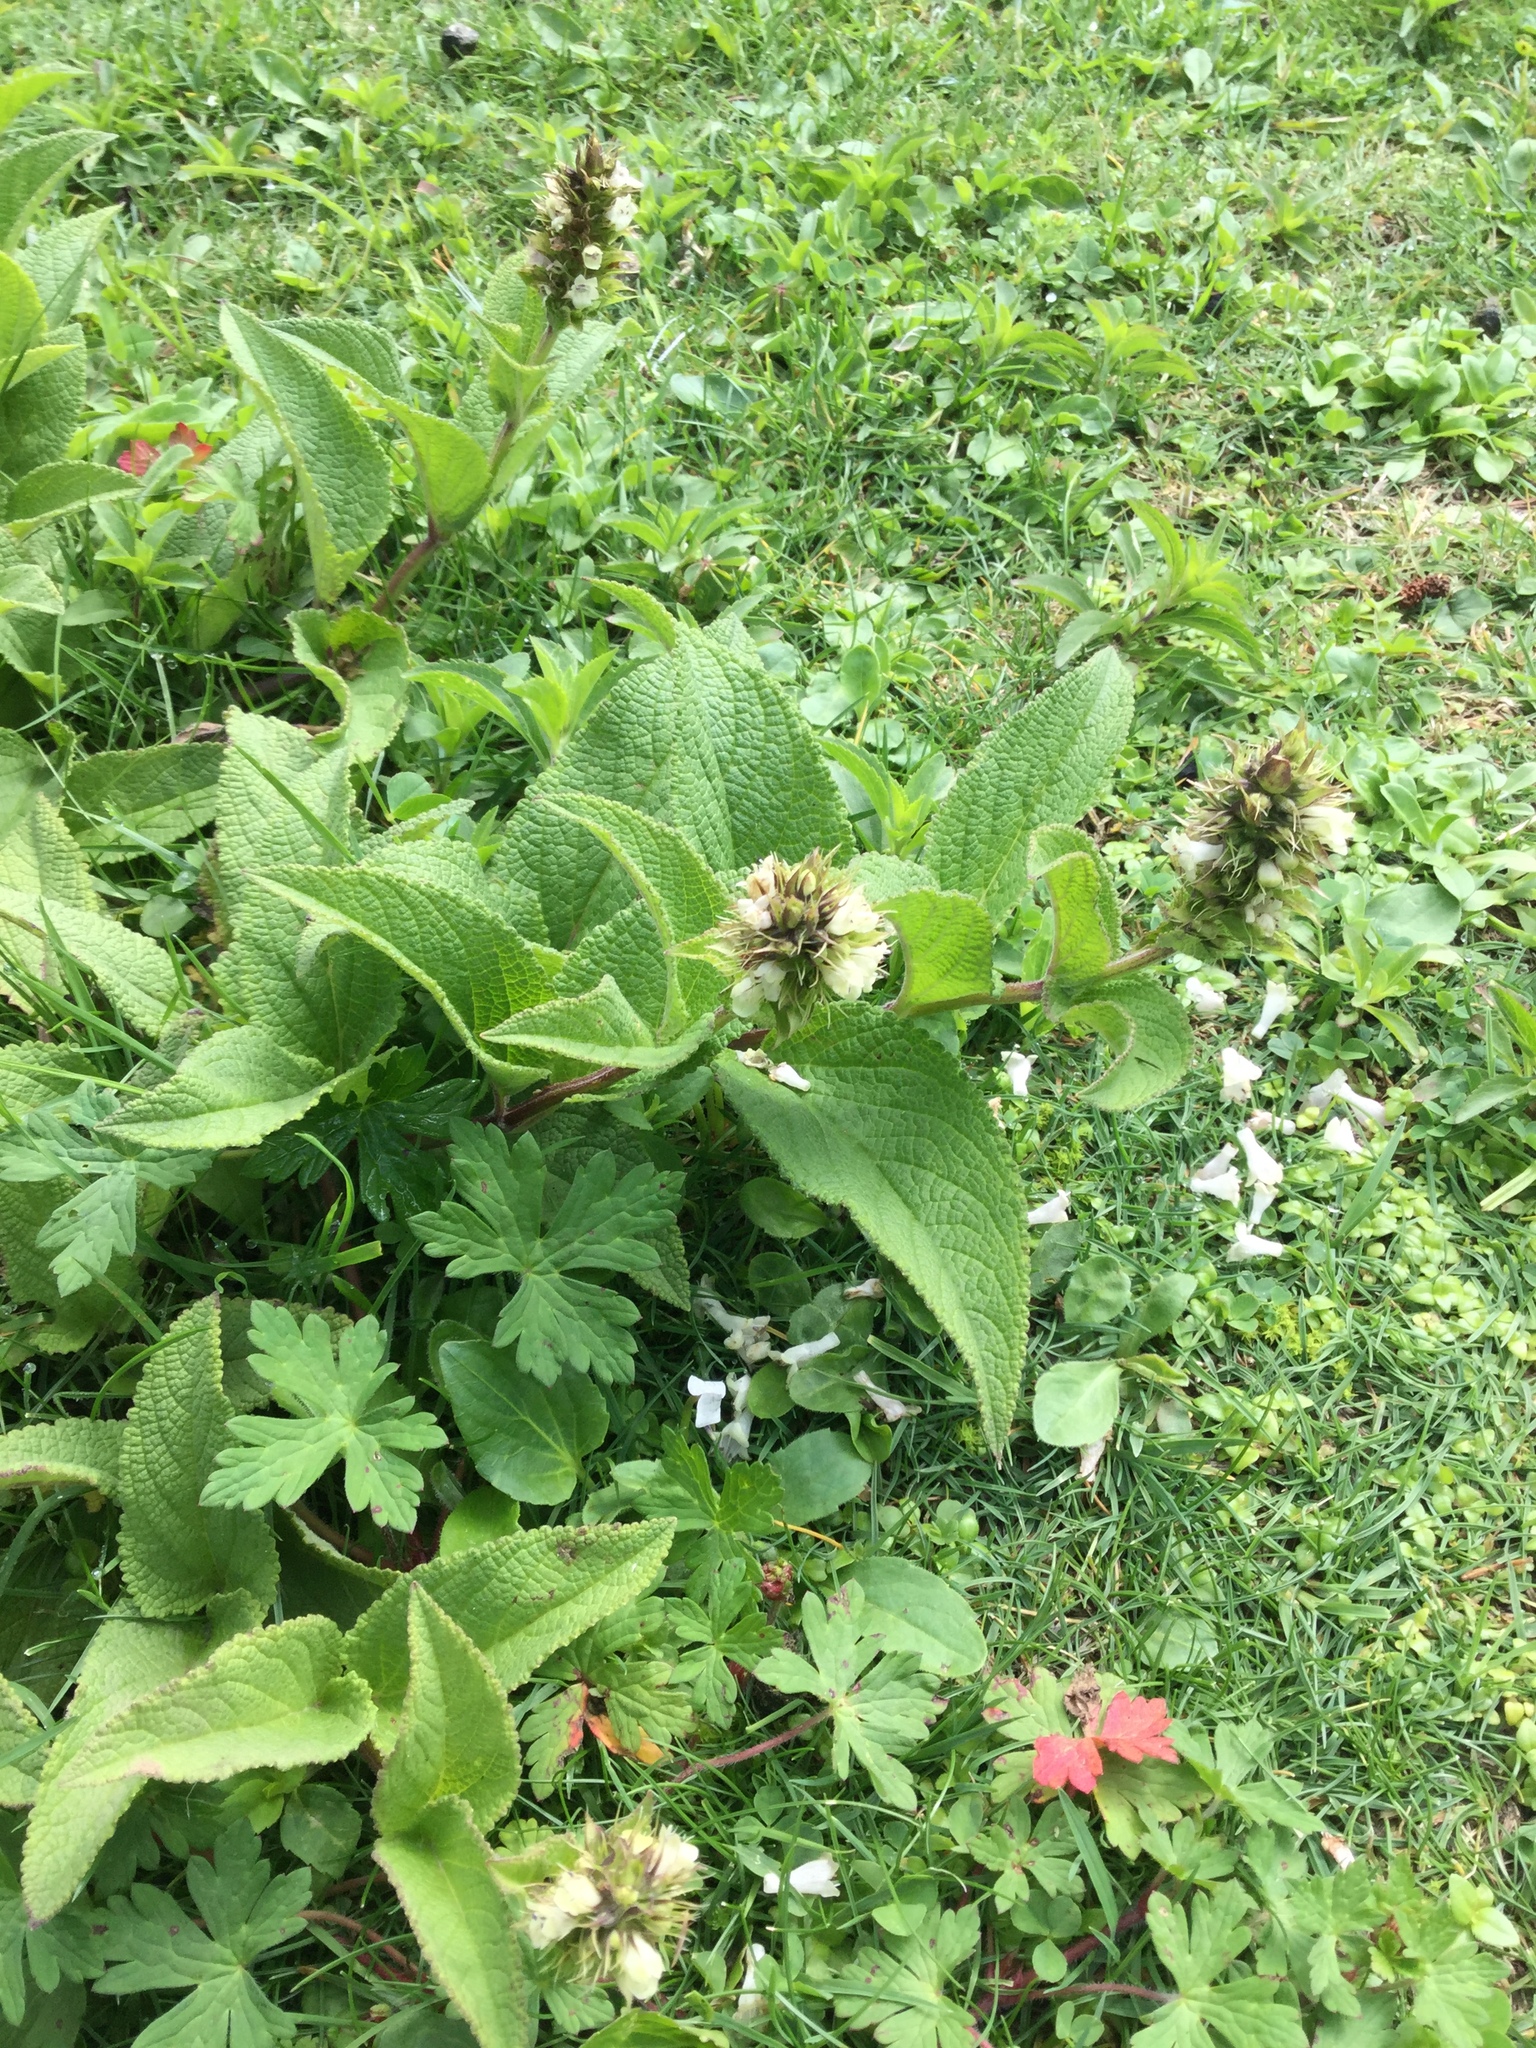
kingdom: Plantae
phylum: Tracheophyta
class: Magnoliopsida
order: Lamiales
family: Lamiaceae
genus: Lepechinia
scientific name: Lepechinia caulescens
